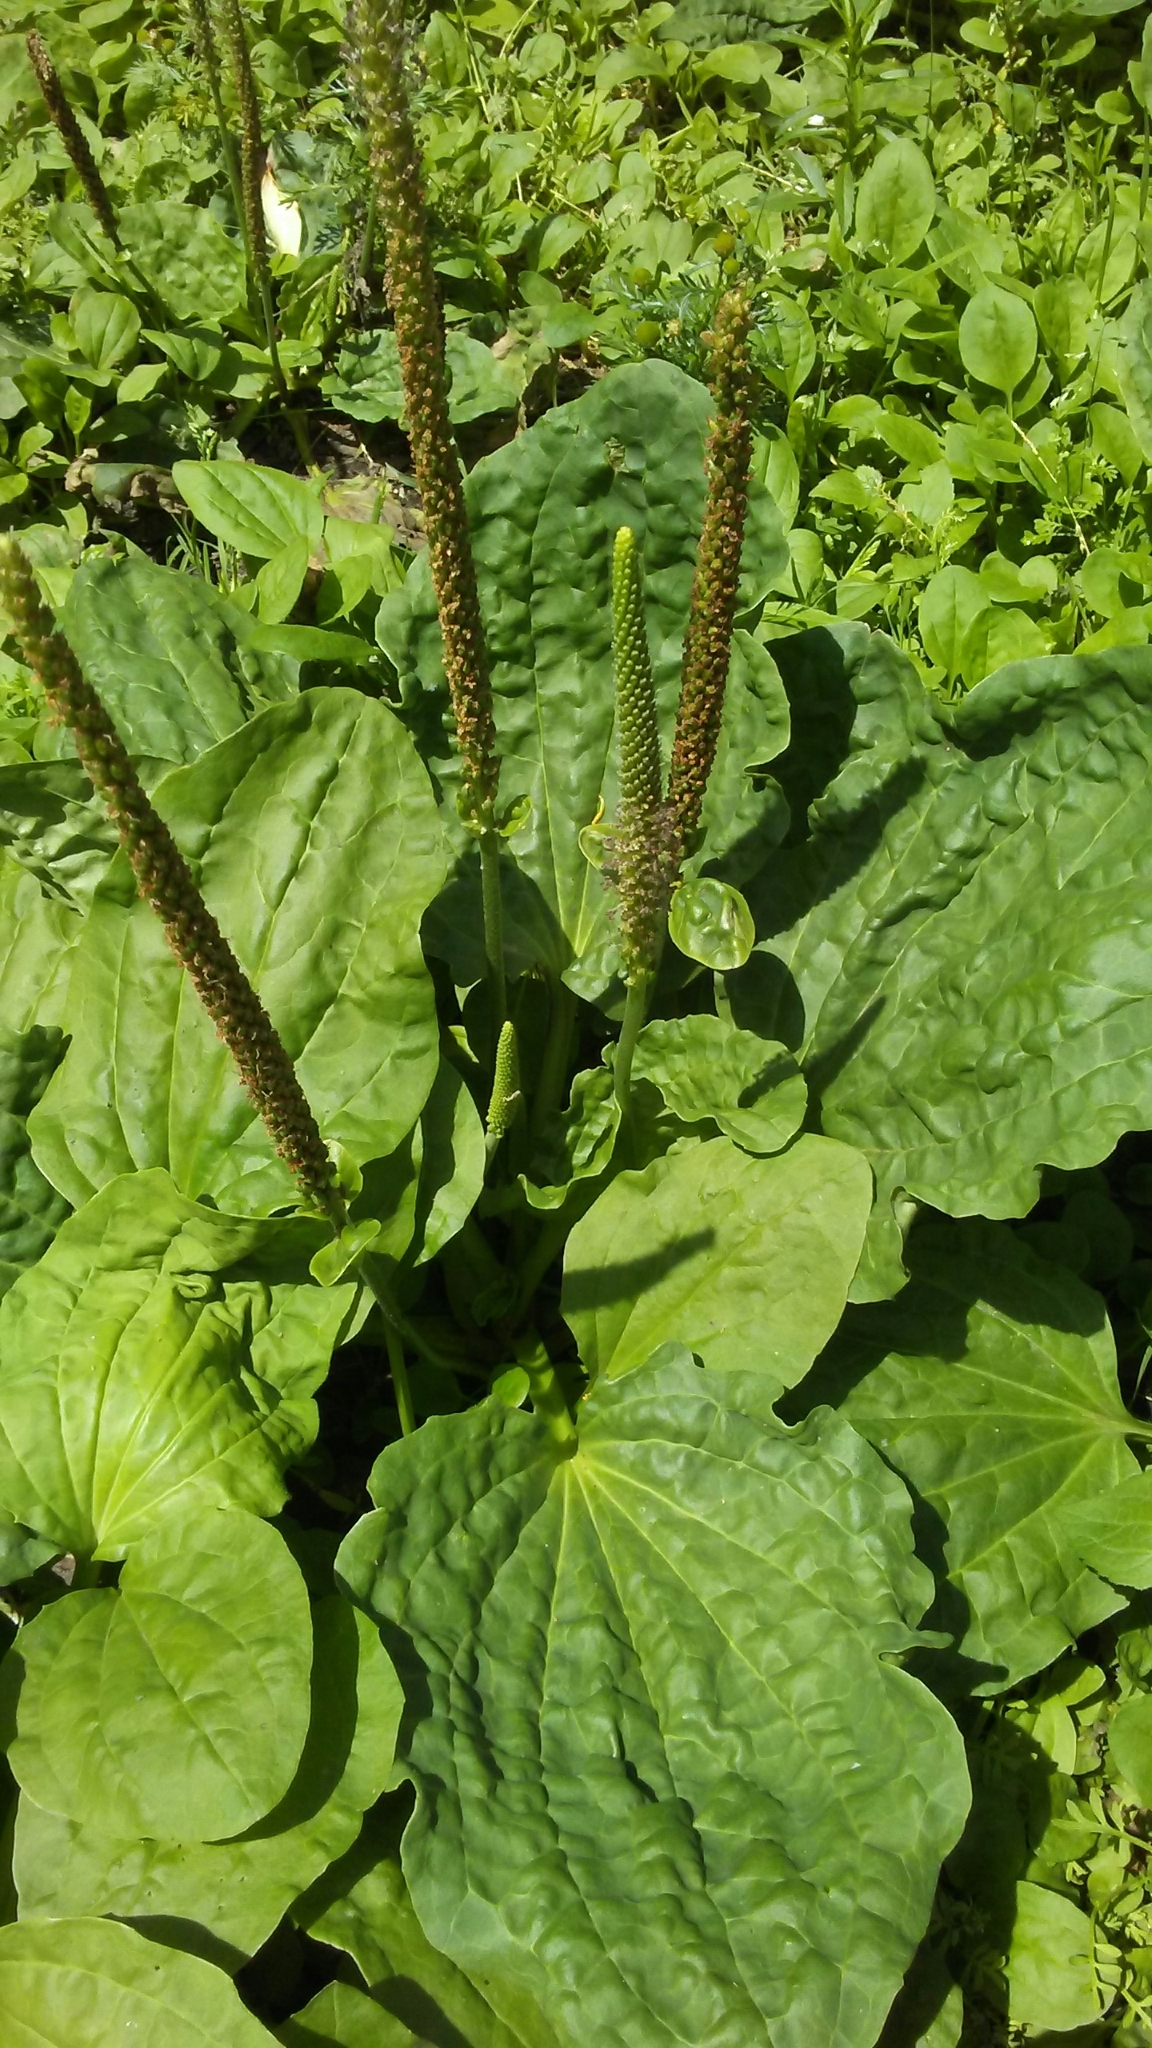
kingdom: Plantae
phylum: Tracheophyta
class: Magnoliopsida
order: Lamiales
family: Plantaginaceae
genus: Plantago
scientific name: Plantago major
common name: Common plantain
